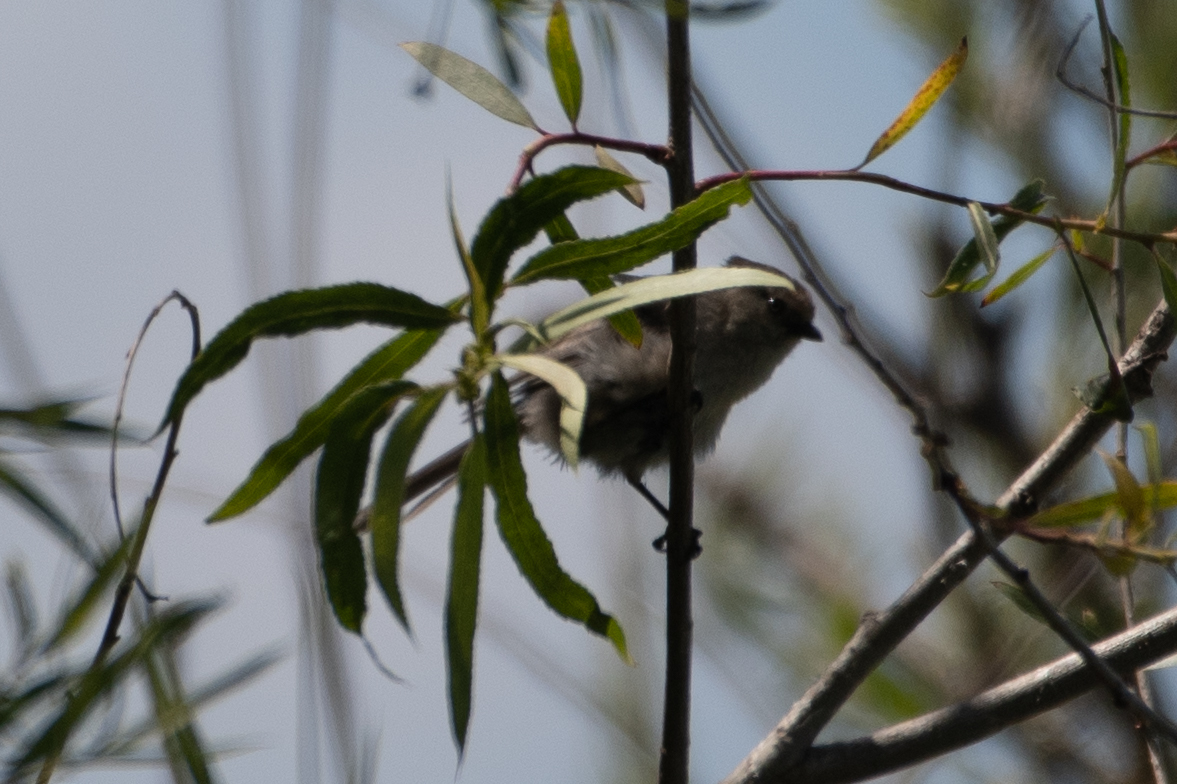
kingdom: Animalia
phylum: Chordata
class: Aves
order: Passeriformes
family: Aegithalidae
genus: Psaltriparus
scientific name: Psaltriparus minimus
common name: American bushtit
